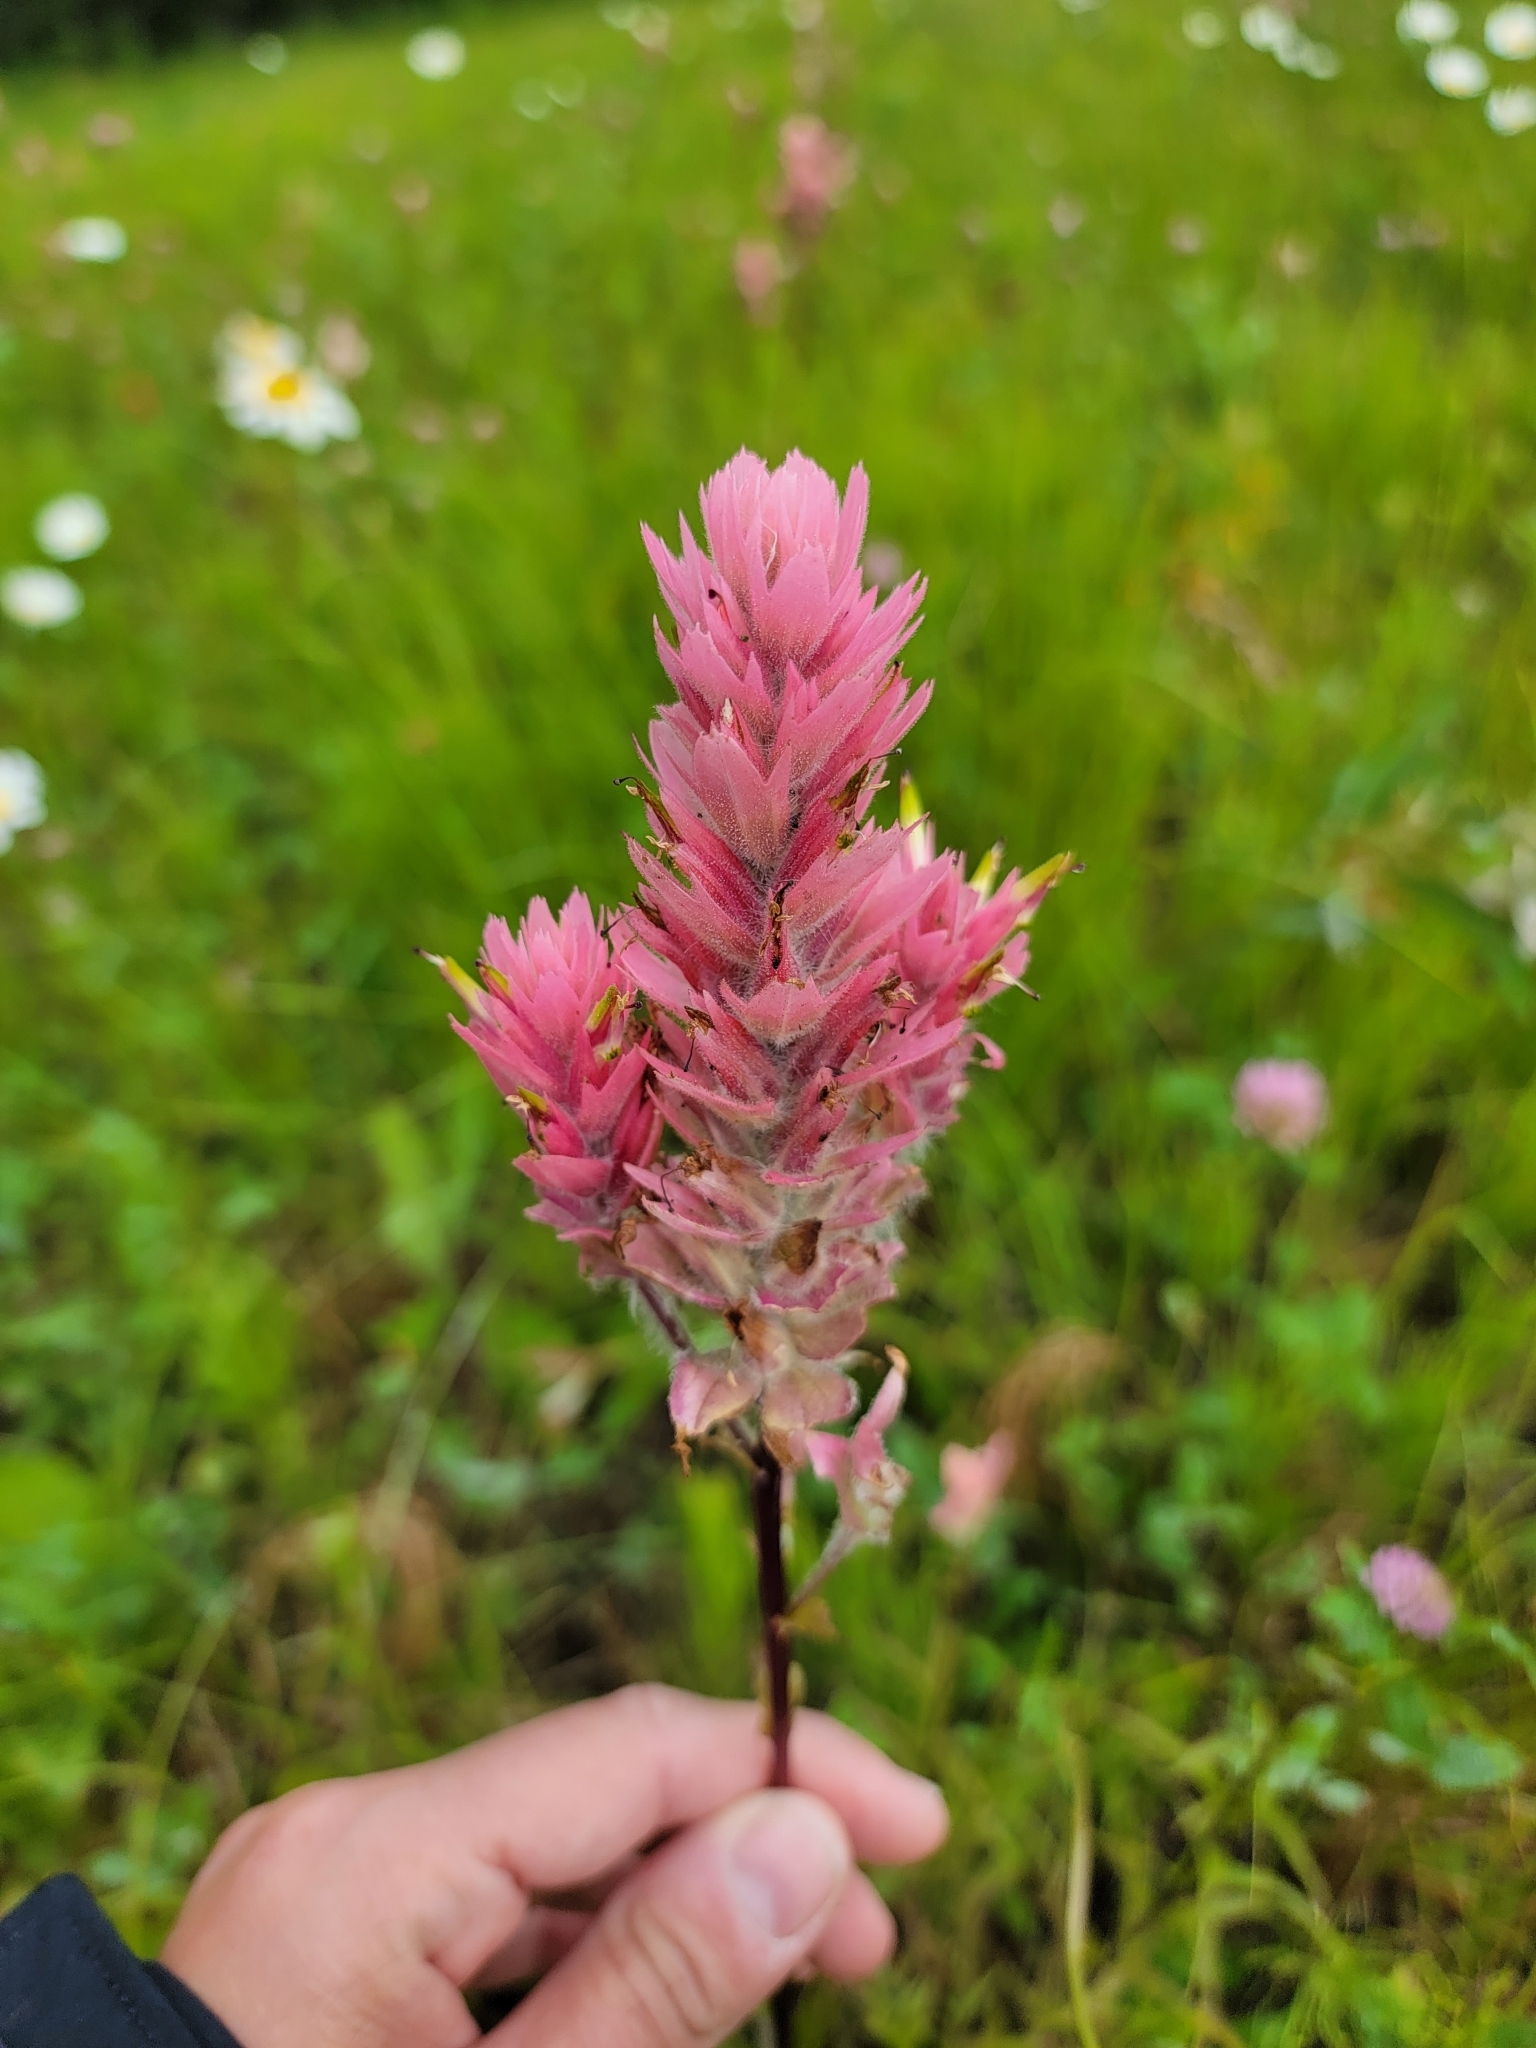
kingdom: Plantae
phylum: Tracheophyta
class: Magnoliopsida
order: Lamiales
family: Orobanchaceae
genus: Castilleja
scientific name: Castilleja miniata
